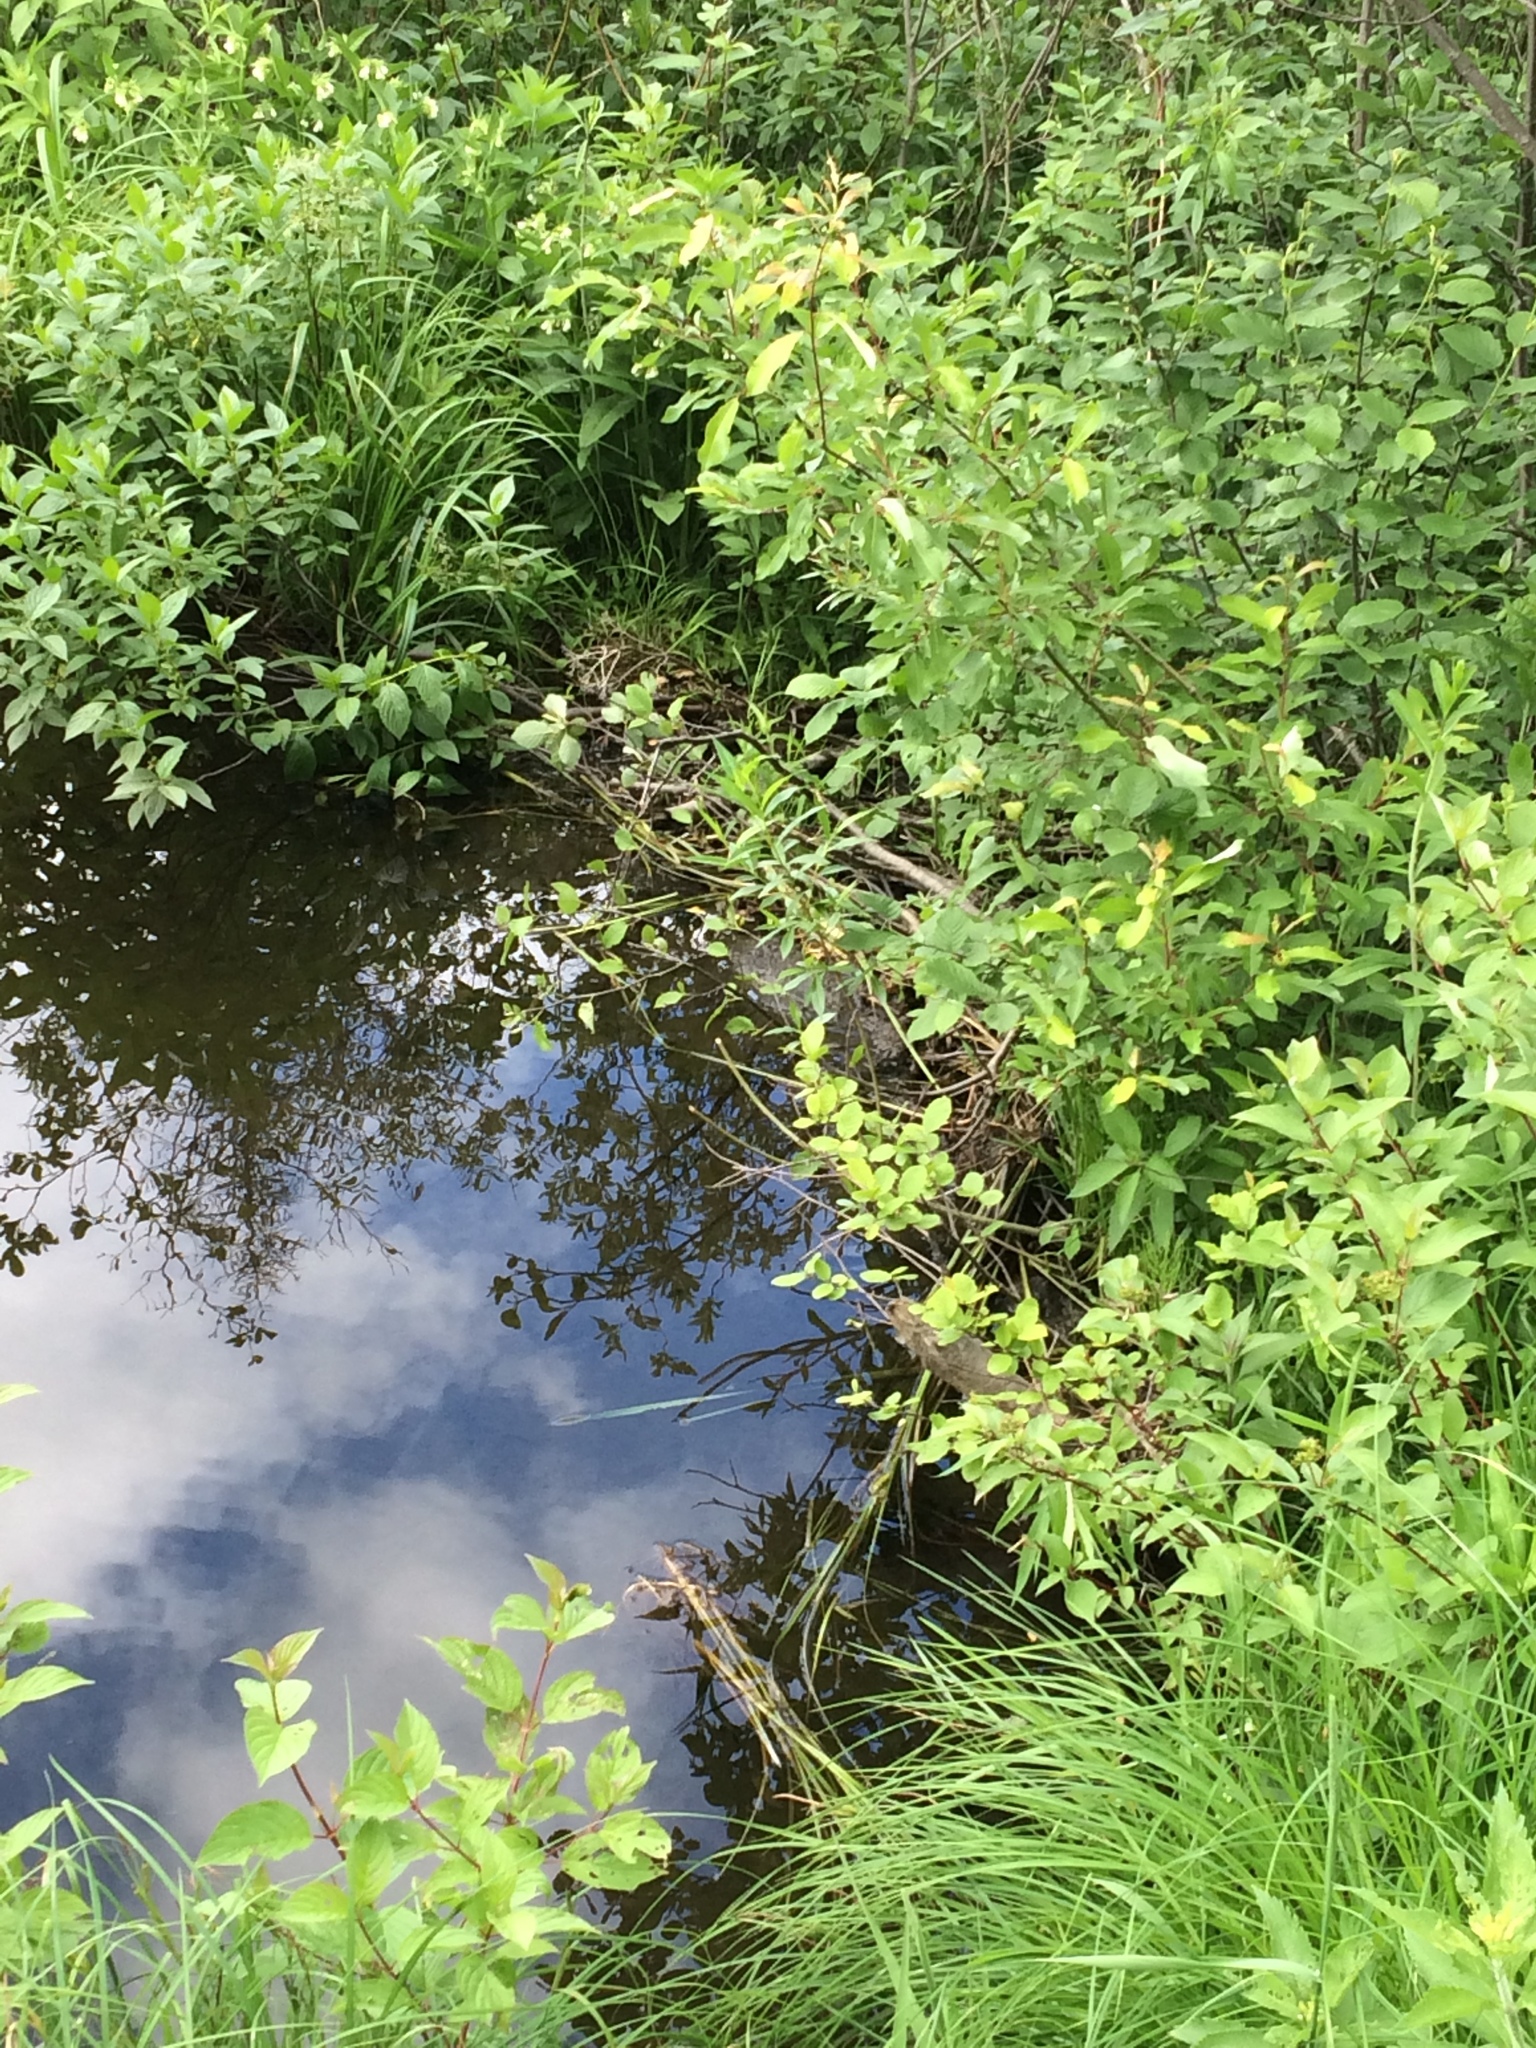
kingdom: Animalia
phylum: Chordata
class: Mammalia
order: Rodentia
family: Castoridae
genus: Castor
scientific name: Castor canadensis
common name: American beaver
